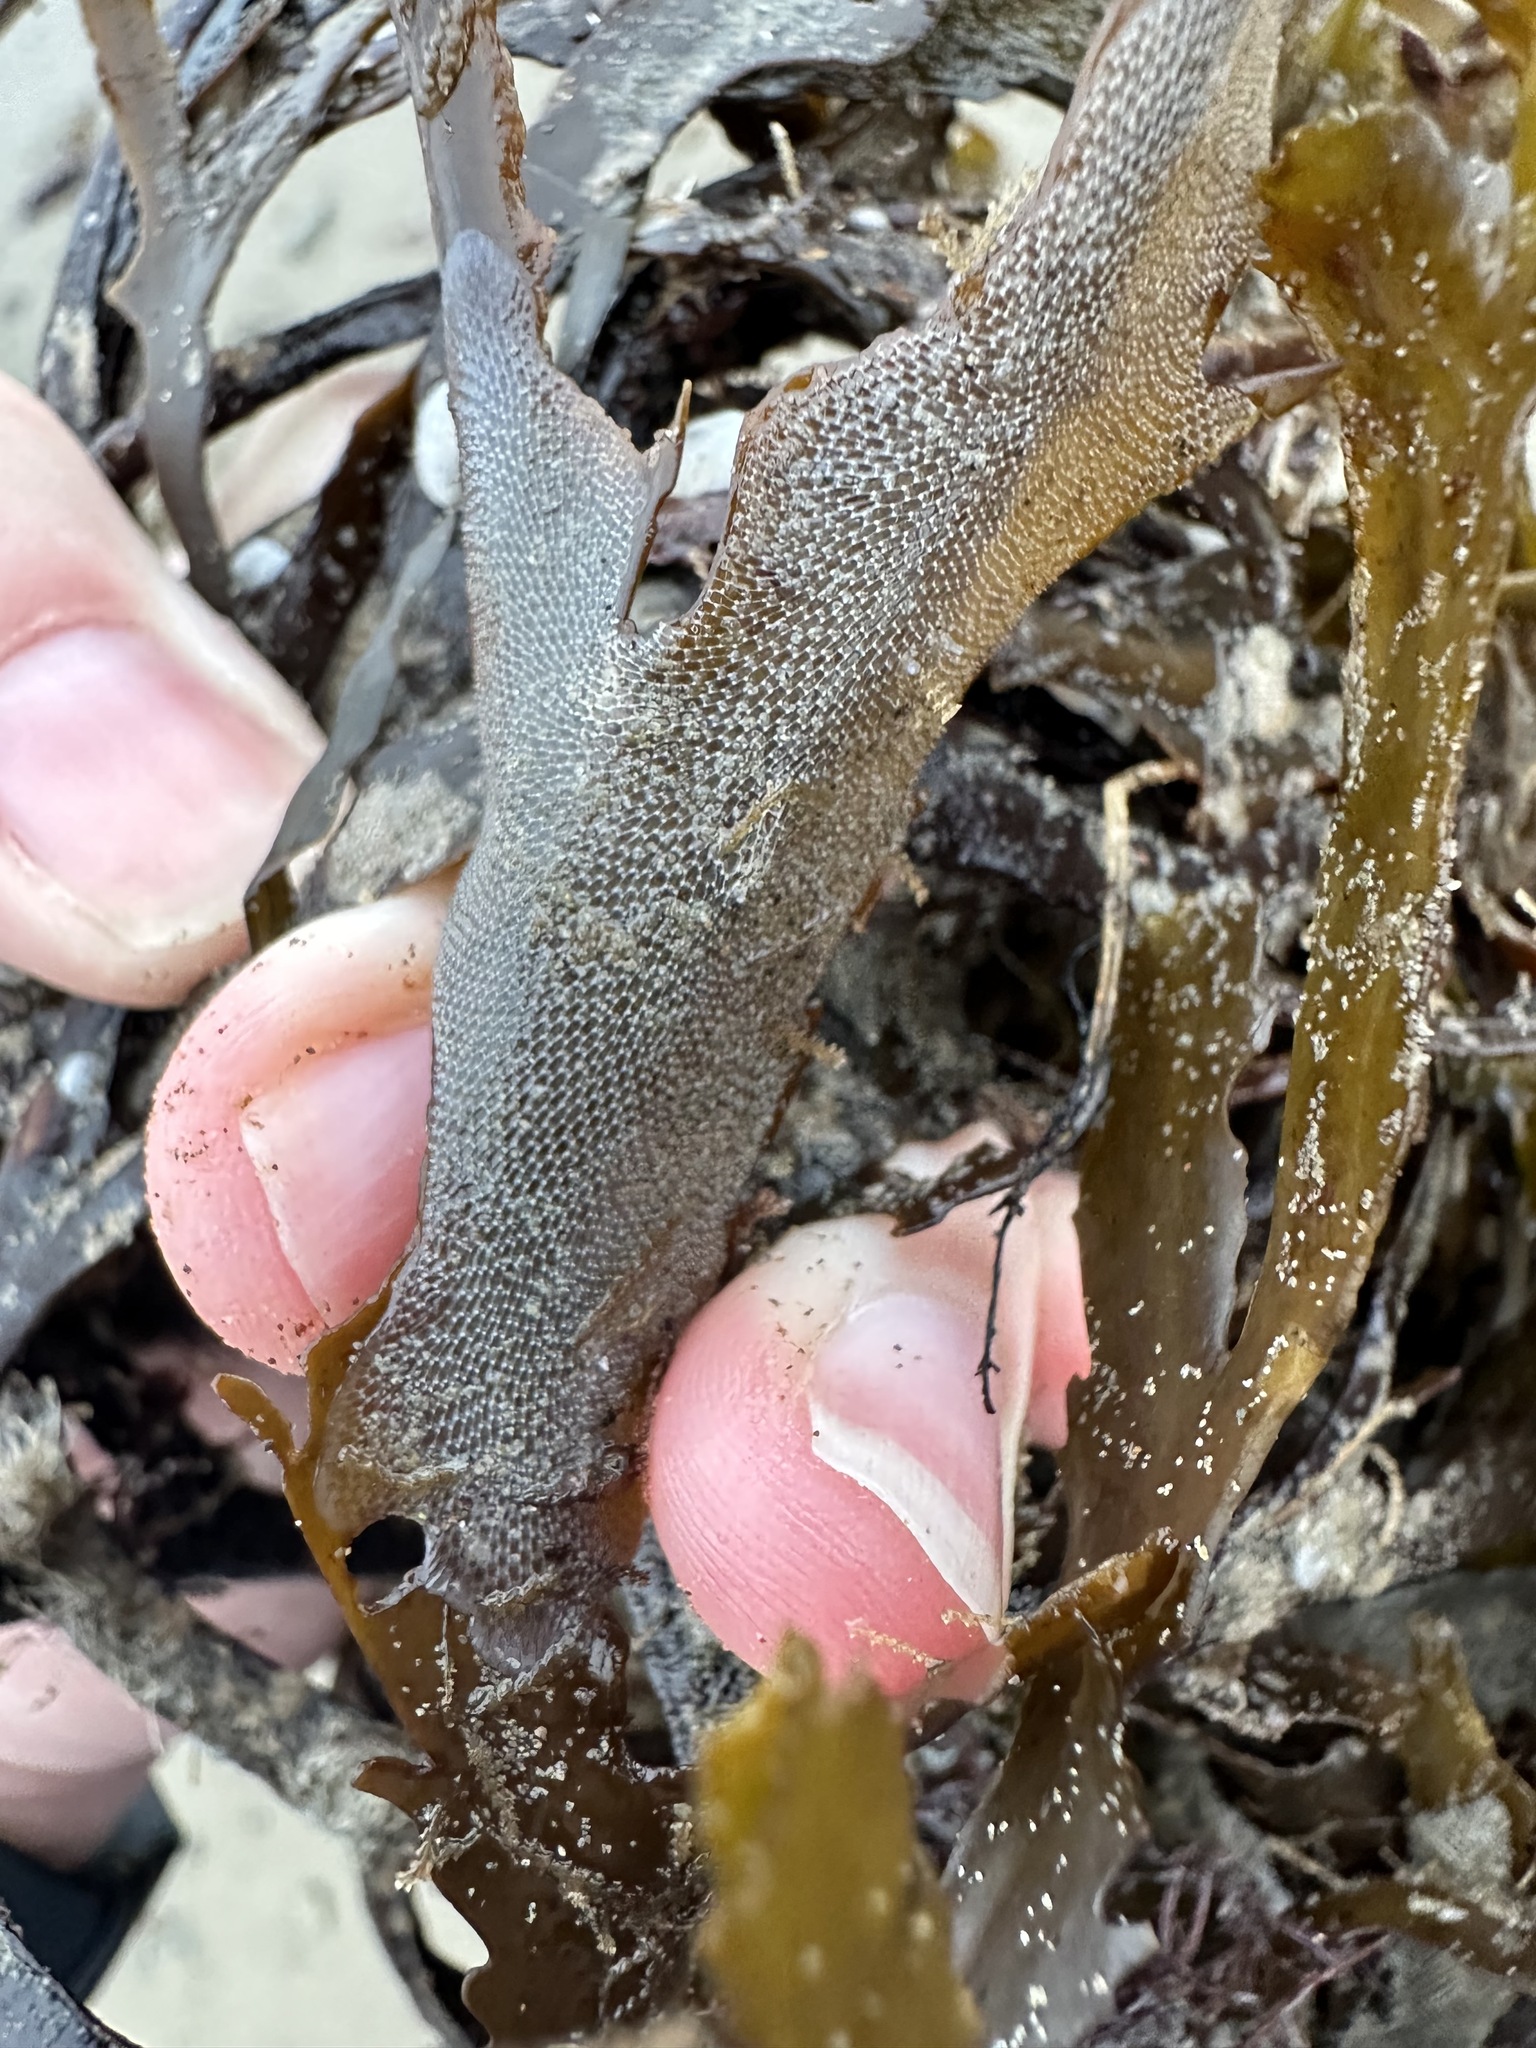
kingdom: Animalia
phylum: Bryozoa
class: Gymnolaemata
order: Cheilostomatida
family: Membraniporidae
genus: Membranipora
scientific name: Membranipora membranacea
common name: Sea mat
